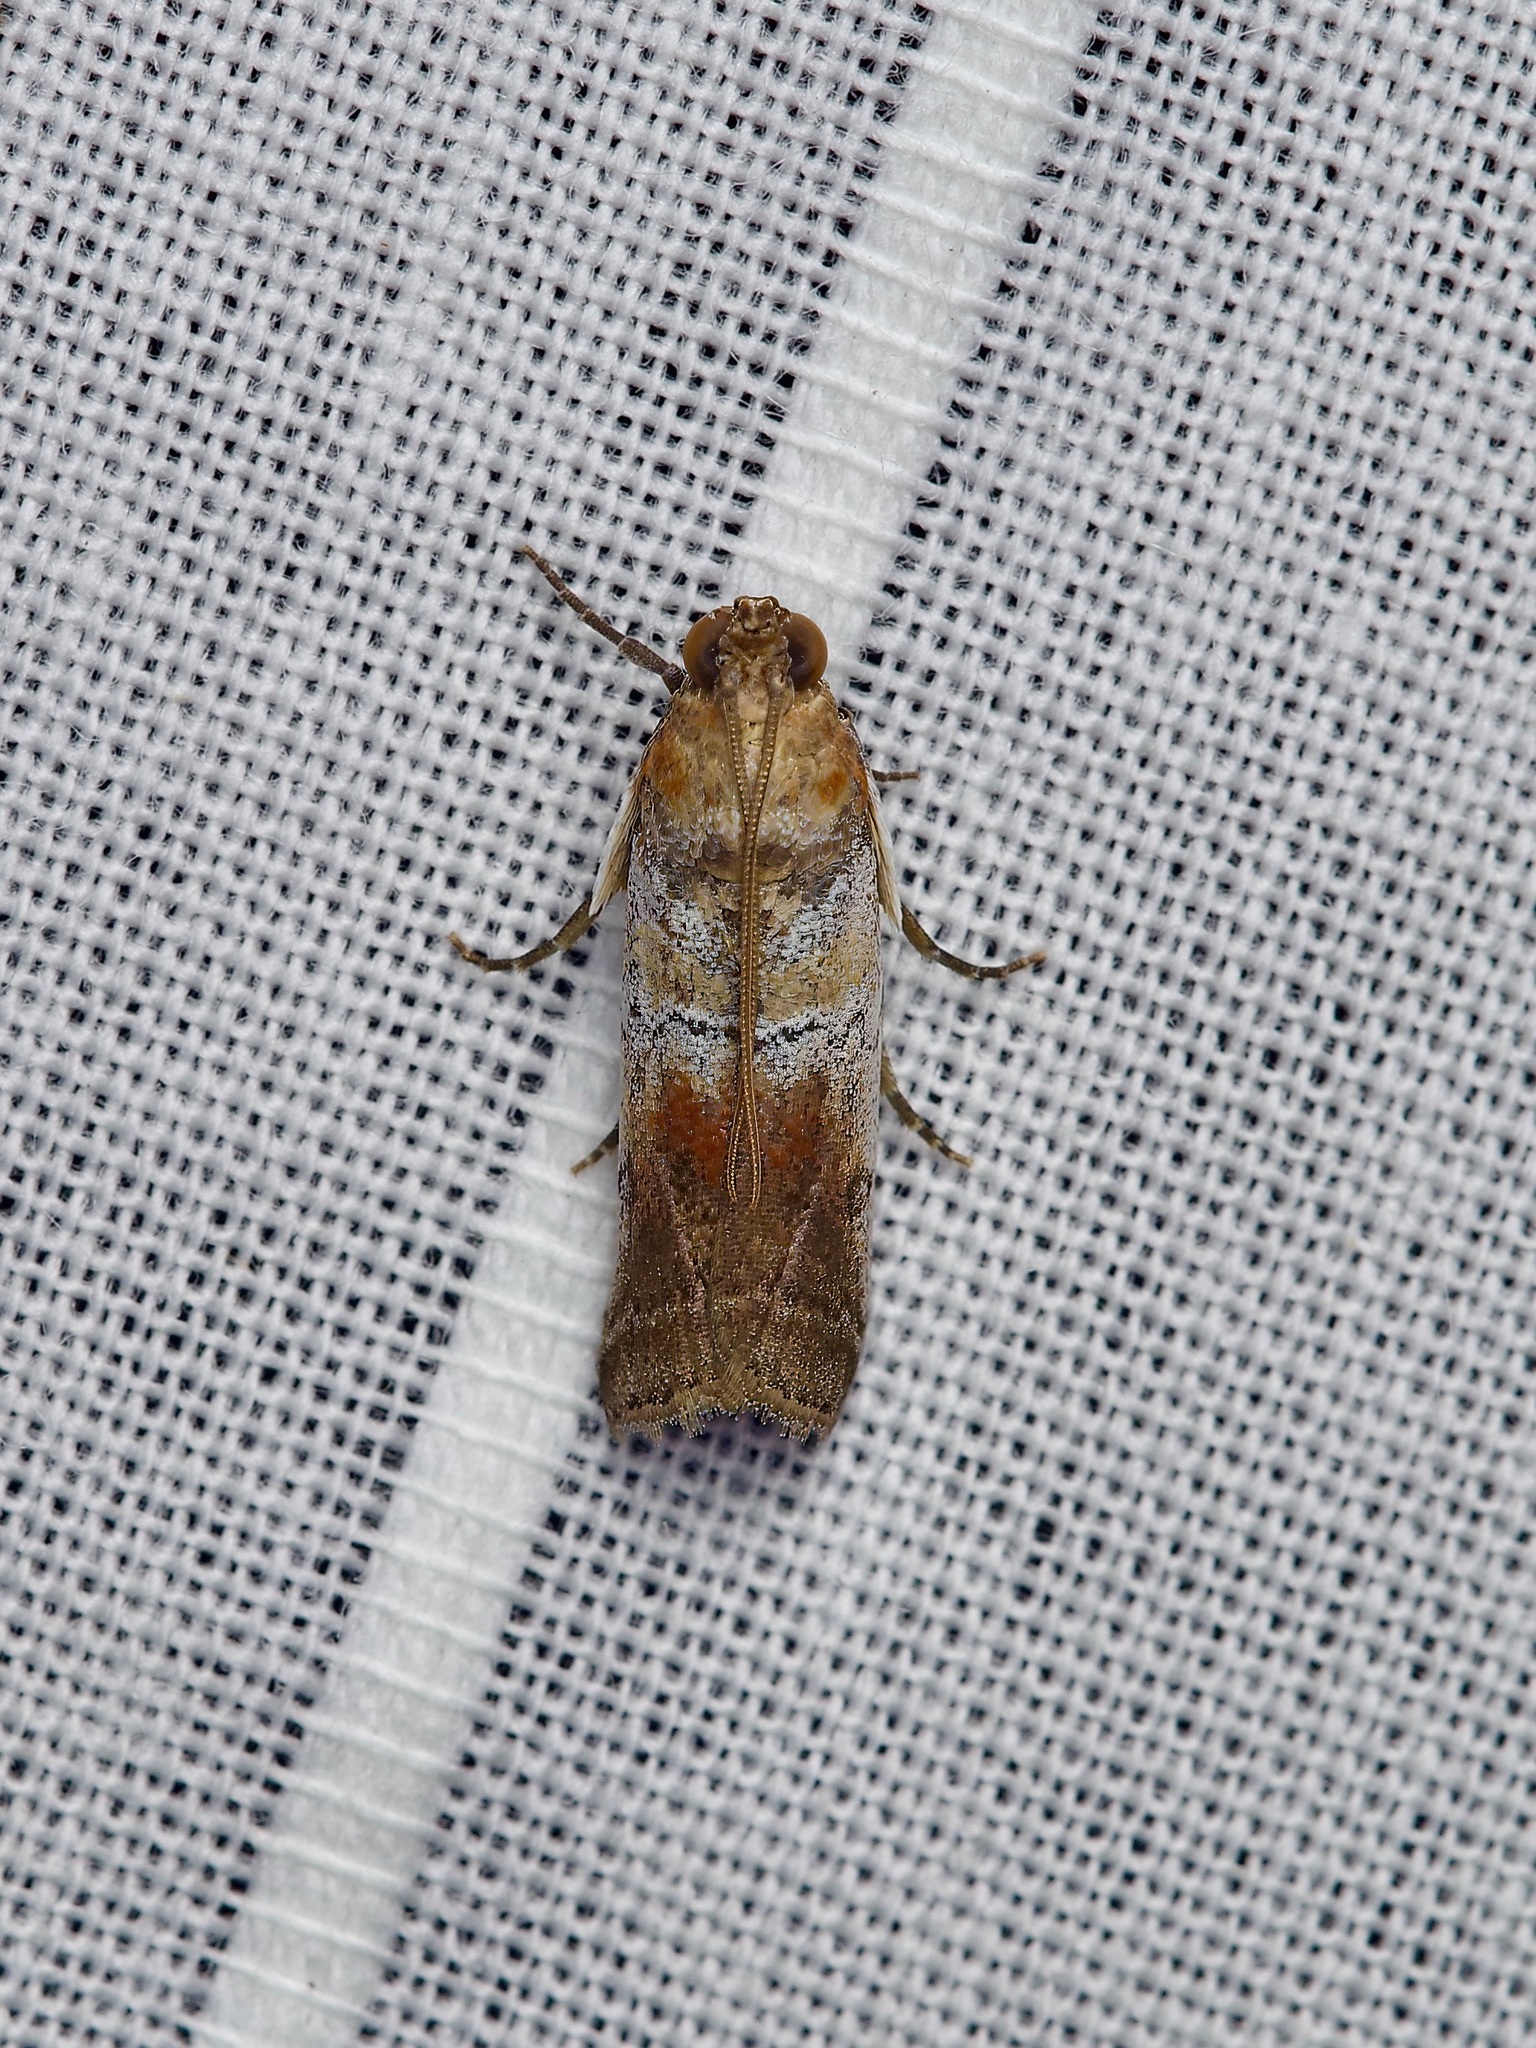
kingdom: Animalia
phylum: Arthropoda
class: Insecta
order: Lepidoptera
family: Pyralidae
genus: Chararica
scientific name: Chararica hystriculella
